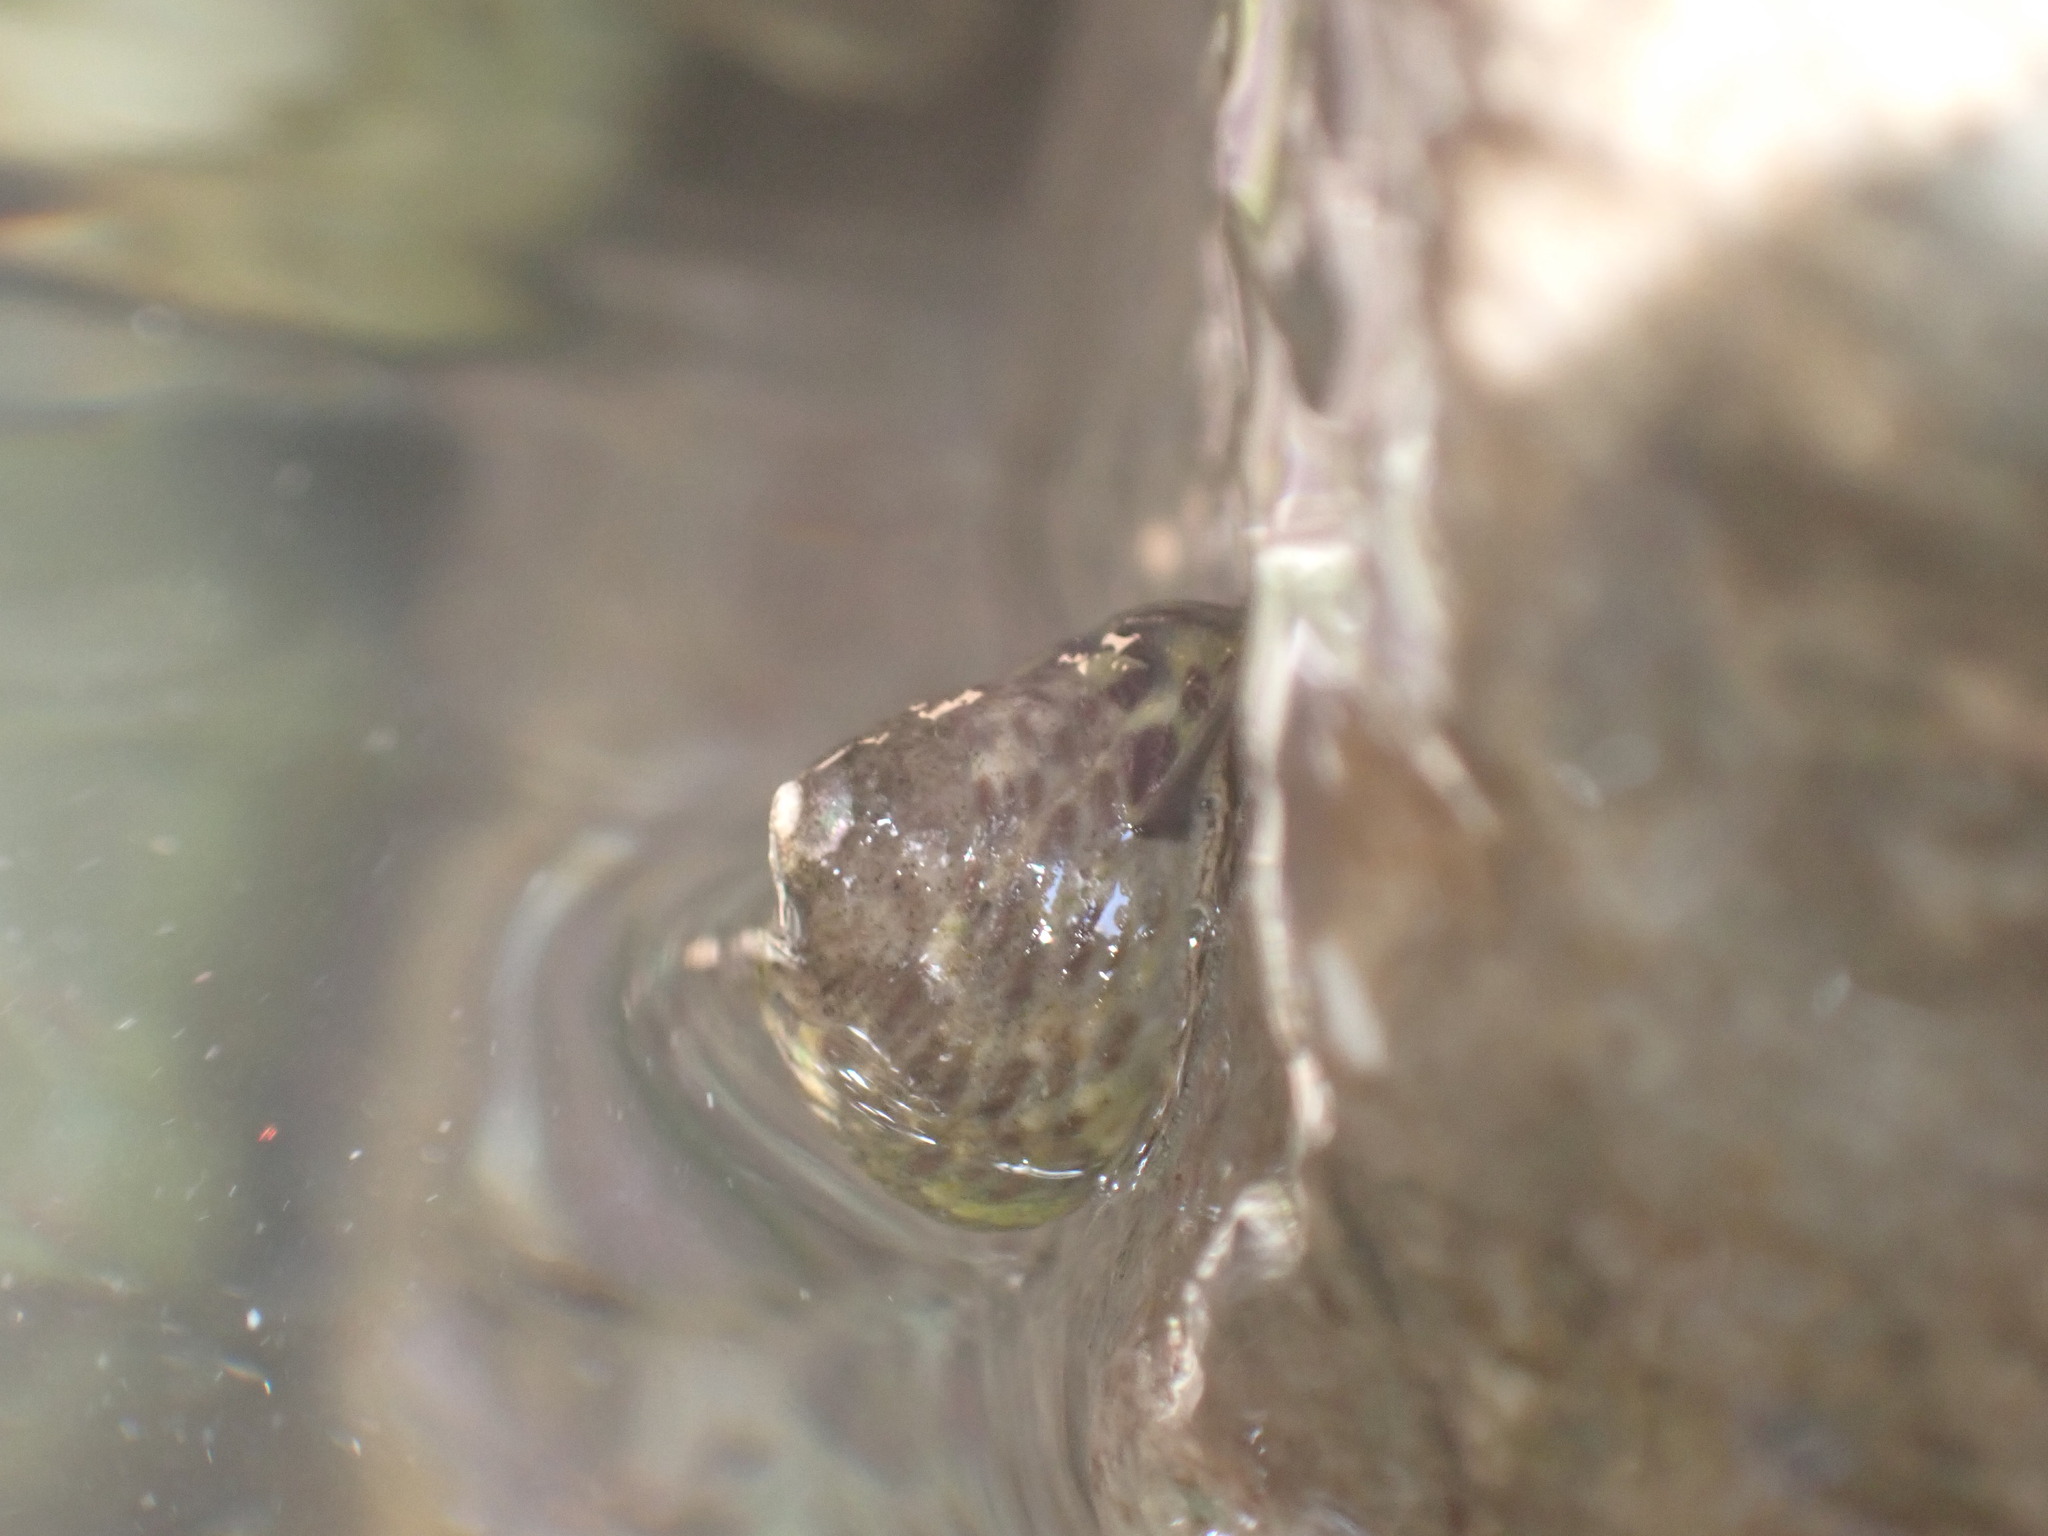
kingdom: Animalia
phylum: Mollusca
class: Gastropoda
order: Trochida
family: Trochidae
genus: Phorcus
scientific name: Phorcus turbinatus
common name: Turbinate monodont
